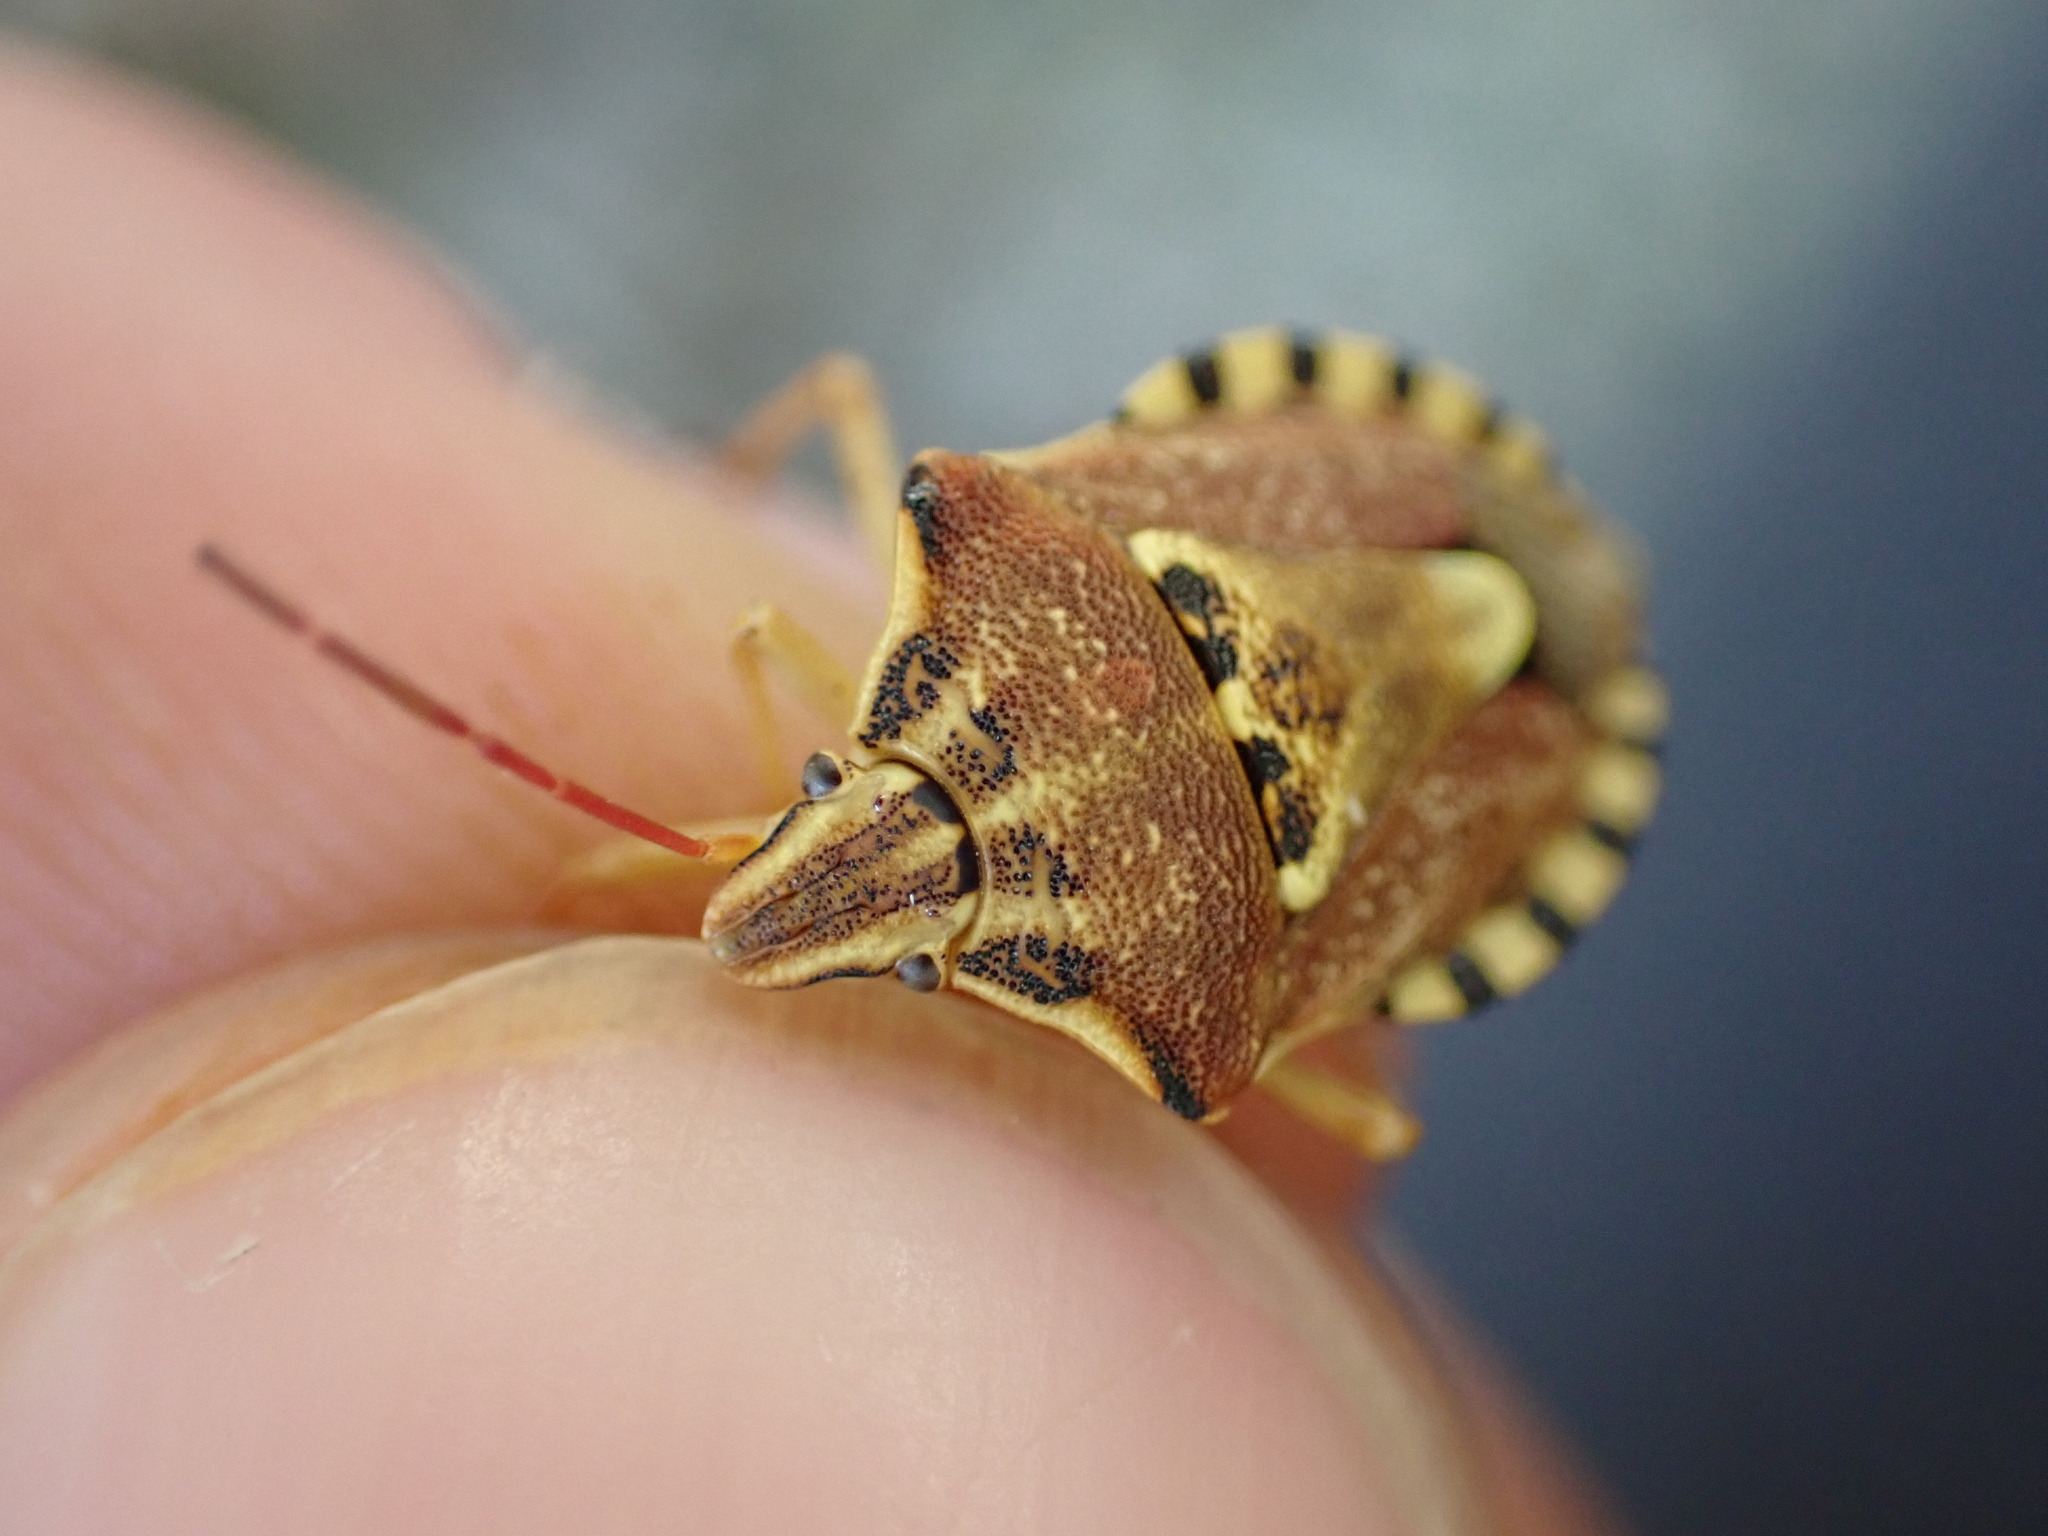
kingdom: Animalia
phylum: Arthropoda
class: Insecta
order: Hemiptera
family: Miridae
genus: Orthops
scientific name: Orthops kalmii
